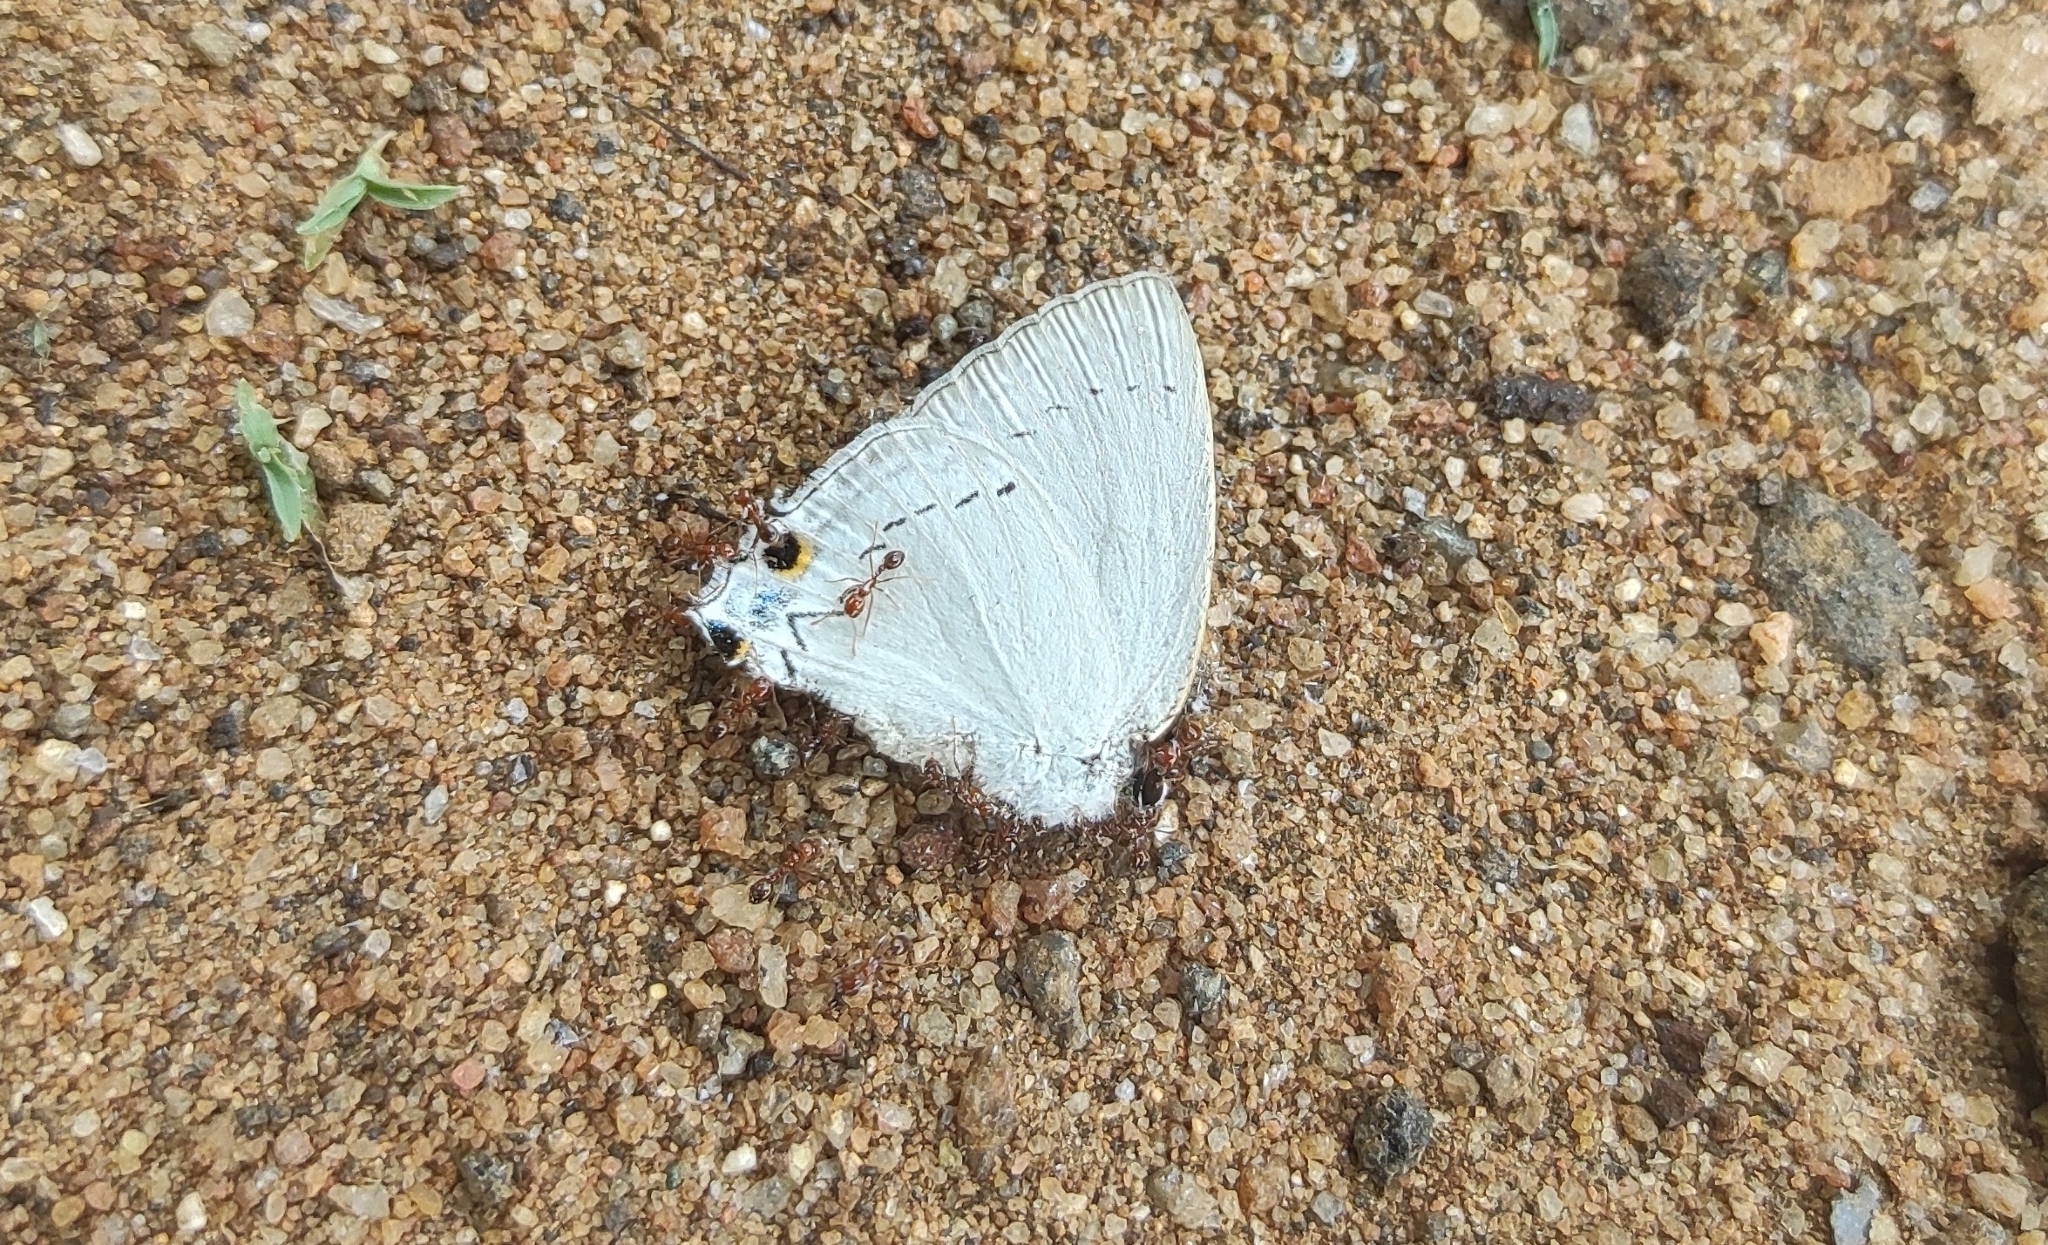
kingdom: Animalia
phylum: Arthropoda
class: Insecta
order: Lepidoptera
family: Lycaenidae
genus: Tajuria
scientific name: Tajuria cippus
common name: Peacock royal
